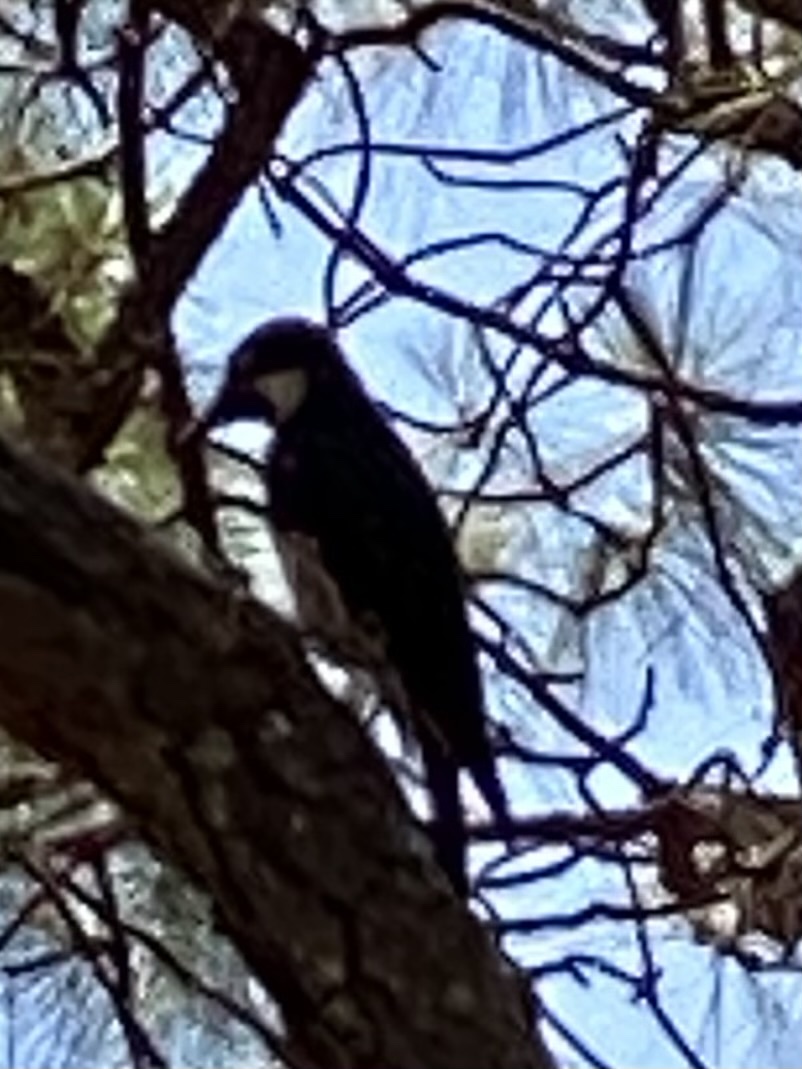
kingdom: Animalia
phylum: Chordata
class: Aves
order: Piciformes
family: Picidae
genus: Melanerpes
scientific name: Melanerpes formicivorus
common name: Acorn woodpecker
